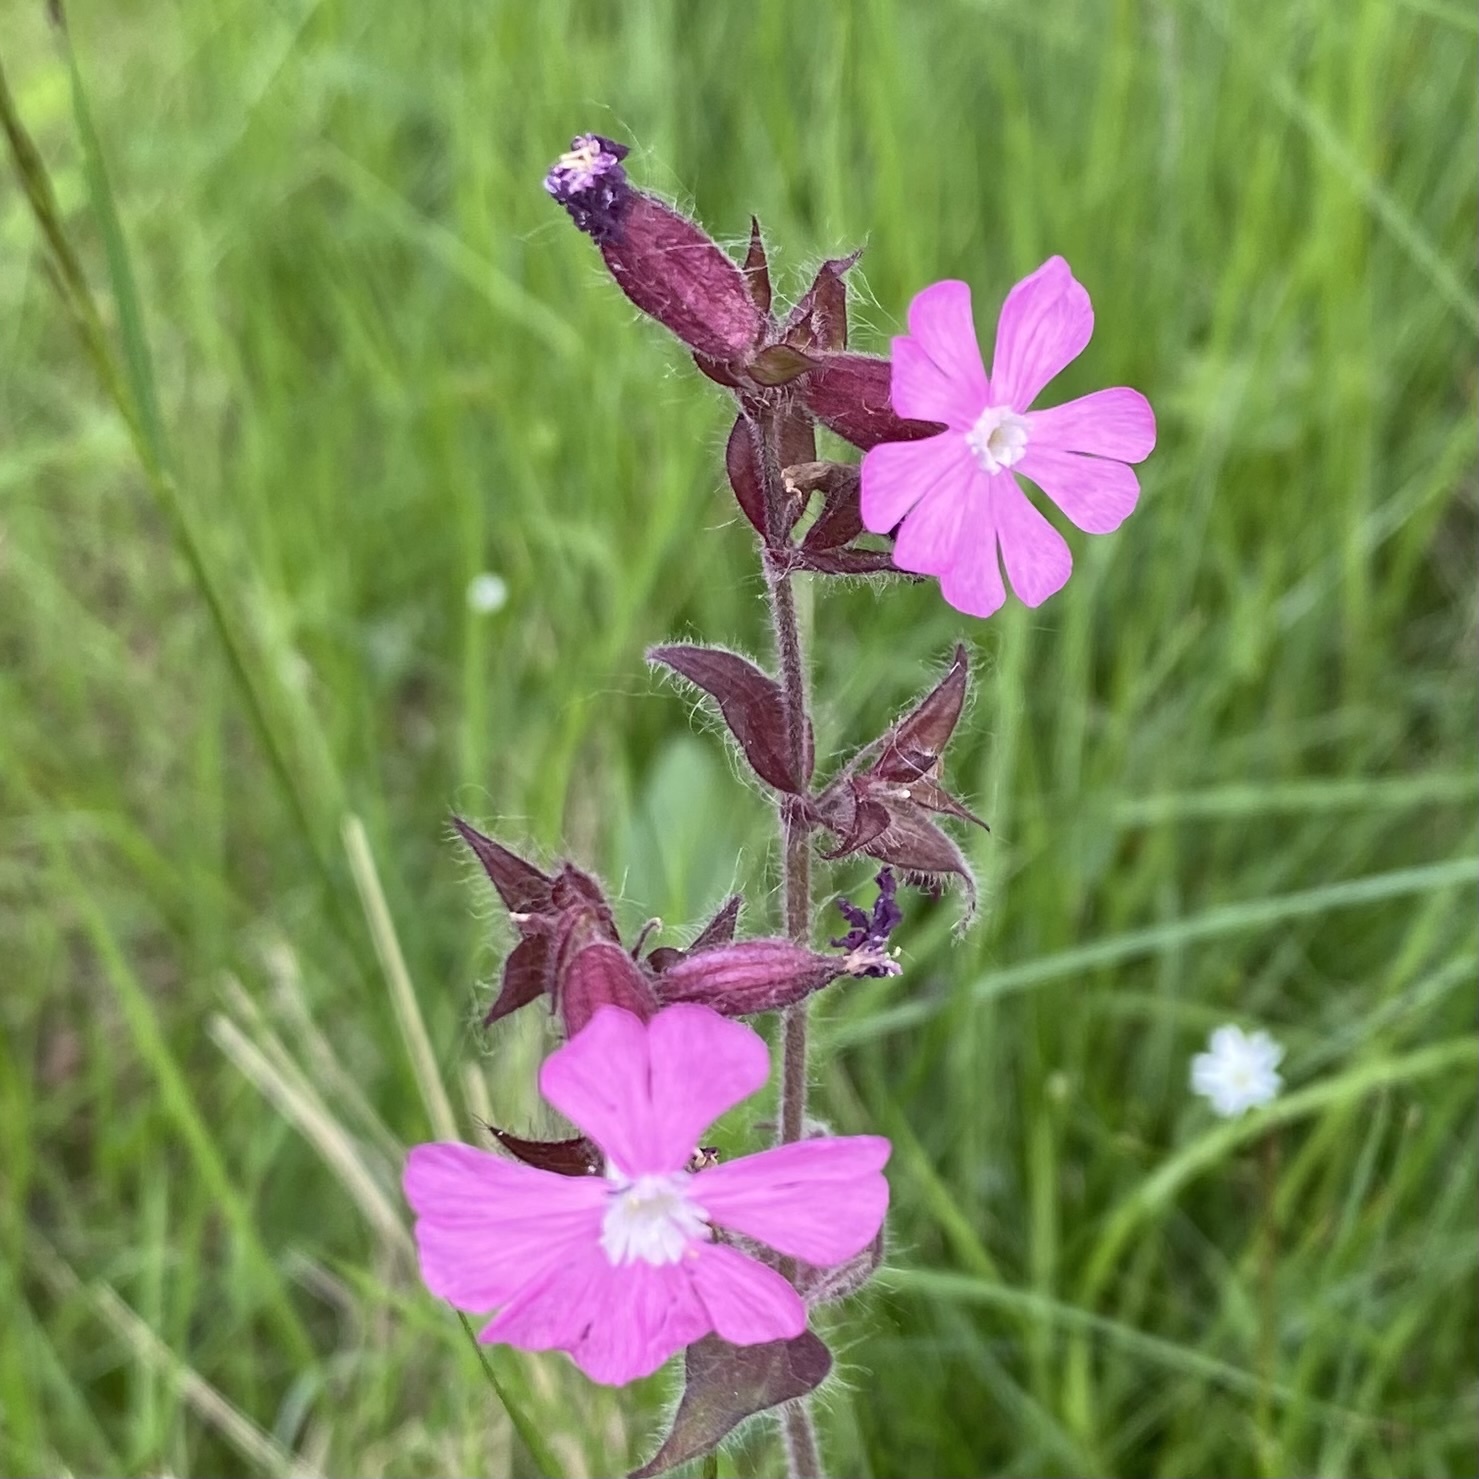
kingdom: Plantae
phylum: Tracheophyta
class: Magnoliopsida
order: Caryophyllales
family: Caryophyllaceae
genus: Silene
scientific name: Silene dioica
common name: Red campion
